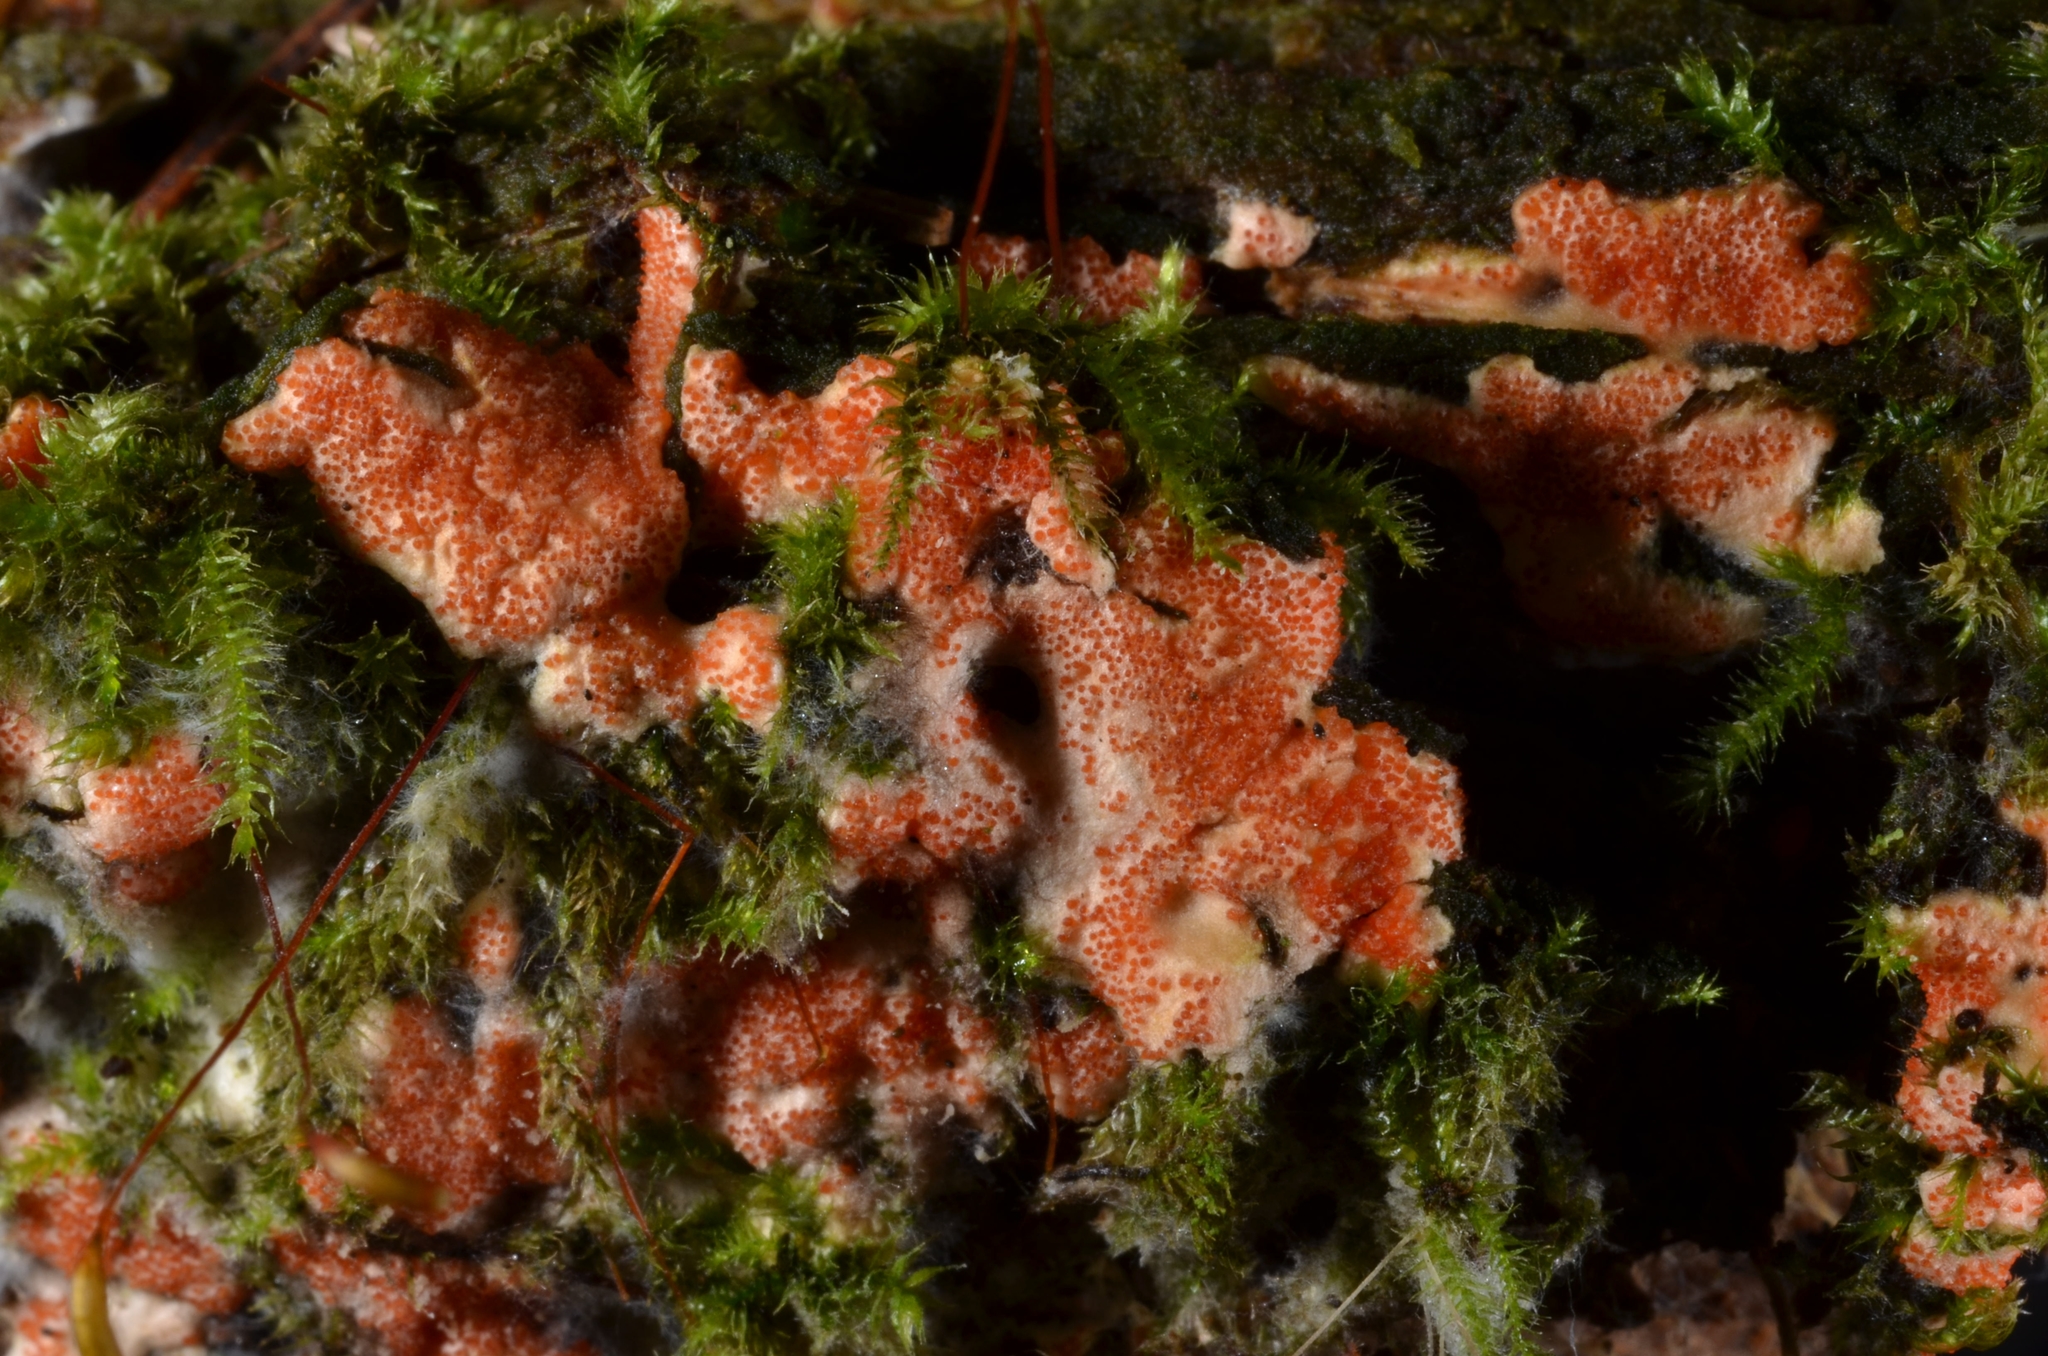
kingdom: Fungi
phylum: Ascomycota
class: Sordariomycetes
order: Hypocreales
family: Hypocreaceae
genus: Hypomyces
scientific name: Hypomyces armeniacus
